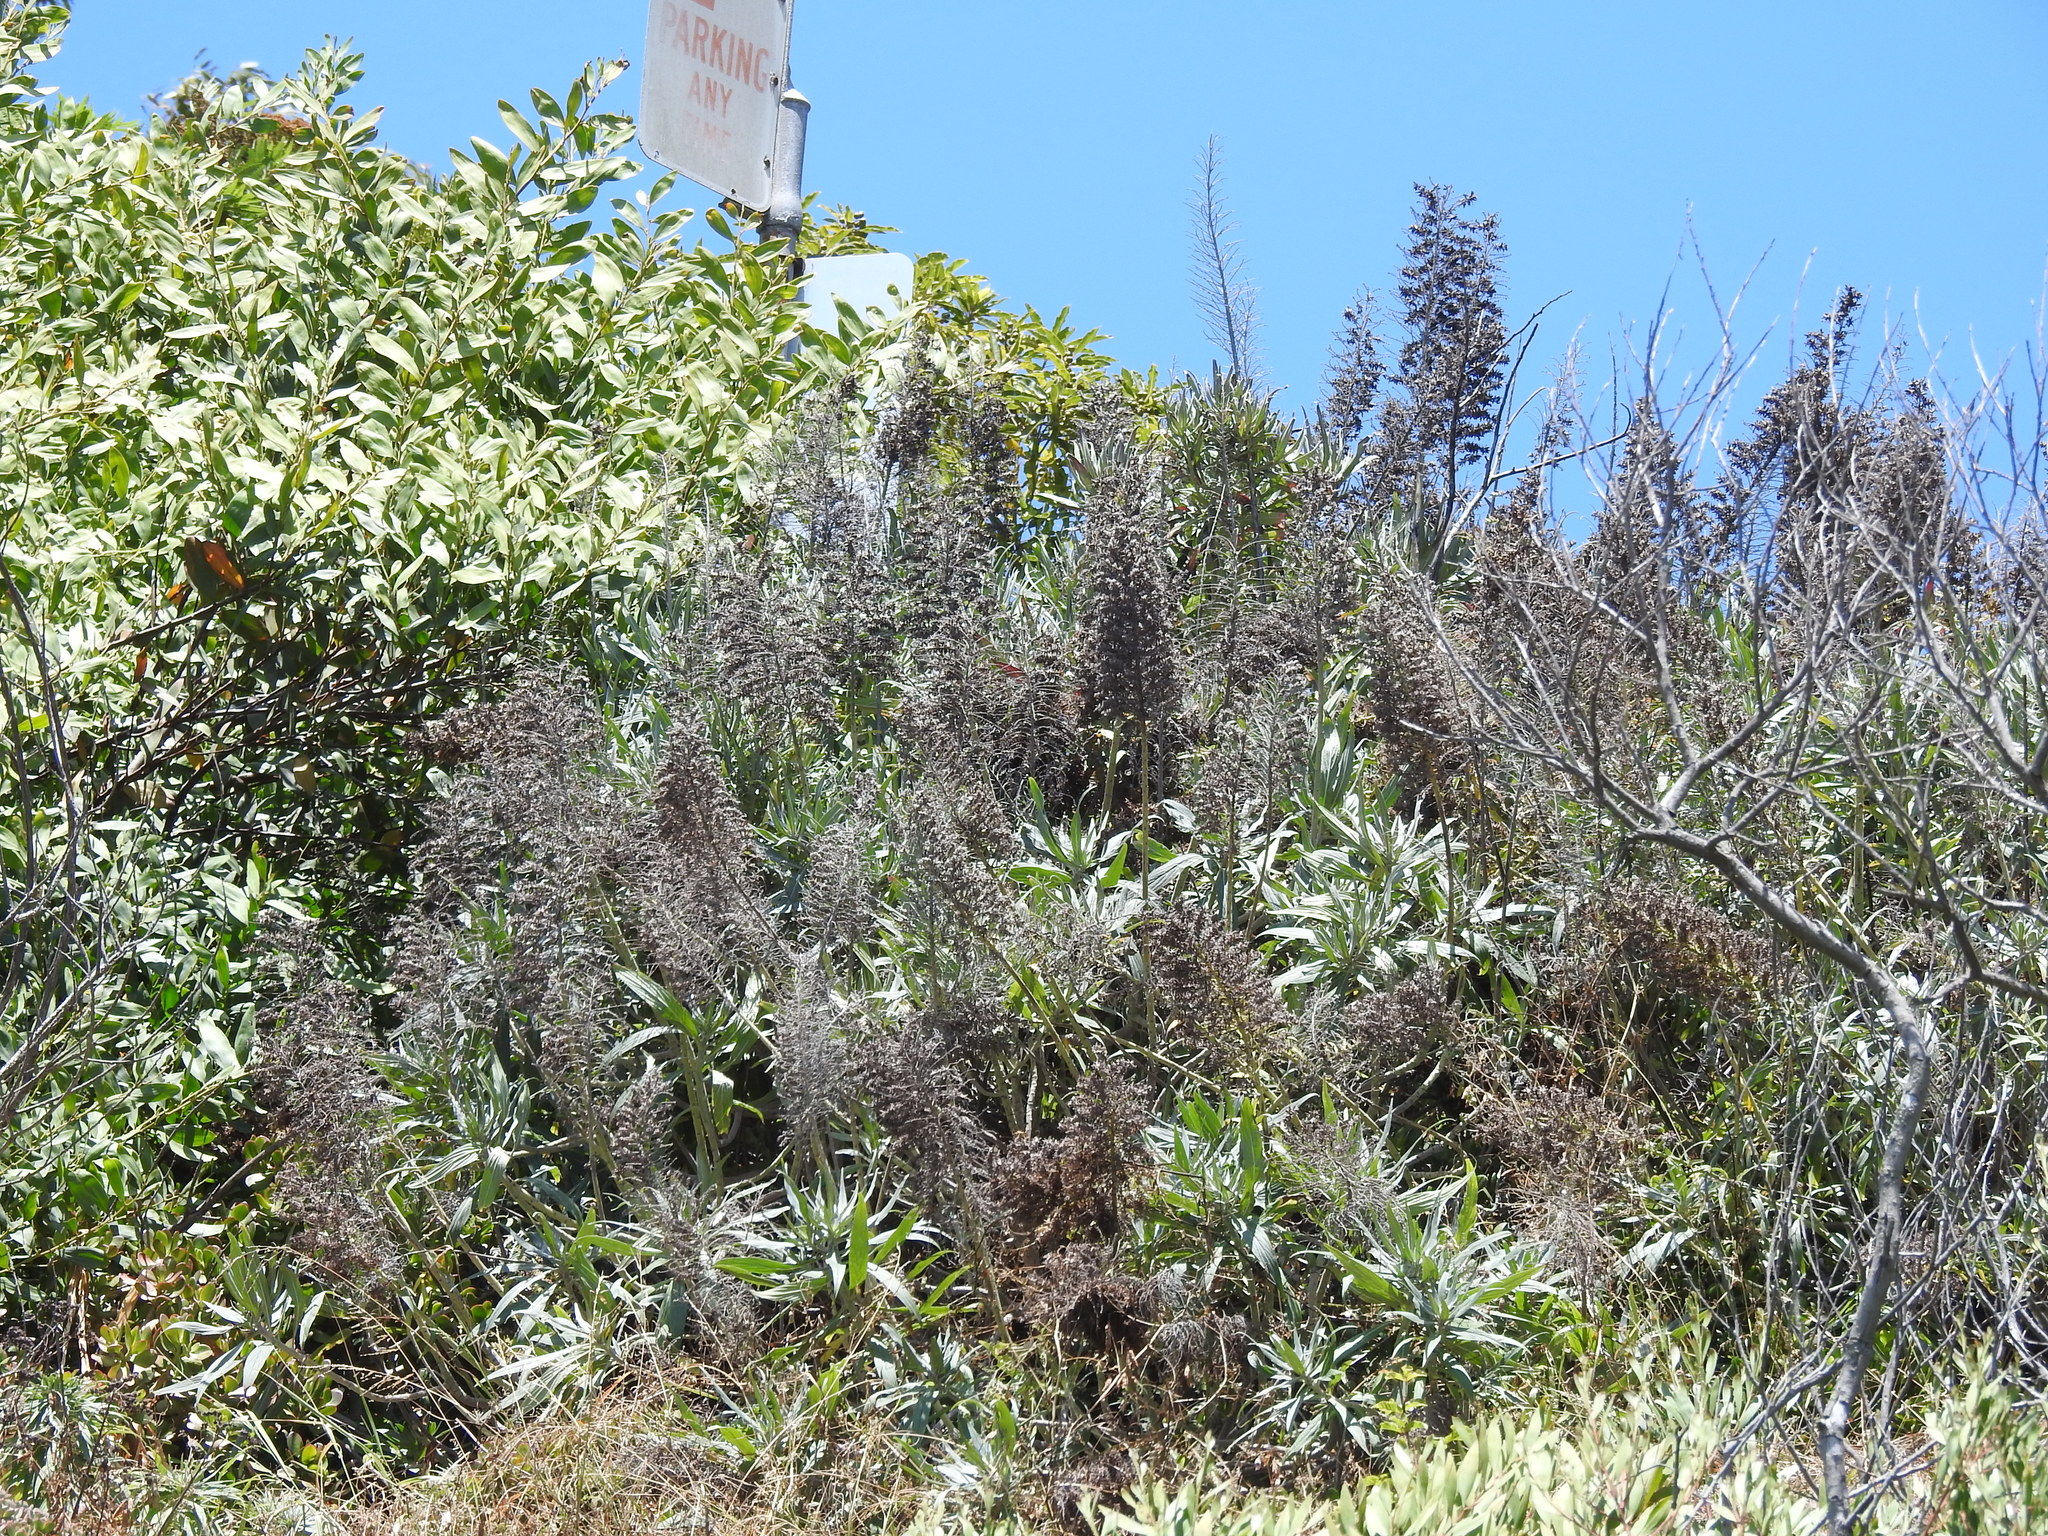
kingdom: Plantae
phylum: Tracheophyta
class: Magnoliopsida
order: Boraginales
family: Boraginaceae
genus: Echium
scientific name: Echium candicans
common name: Pride of madeira
